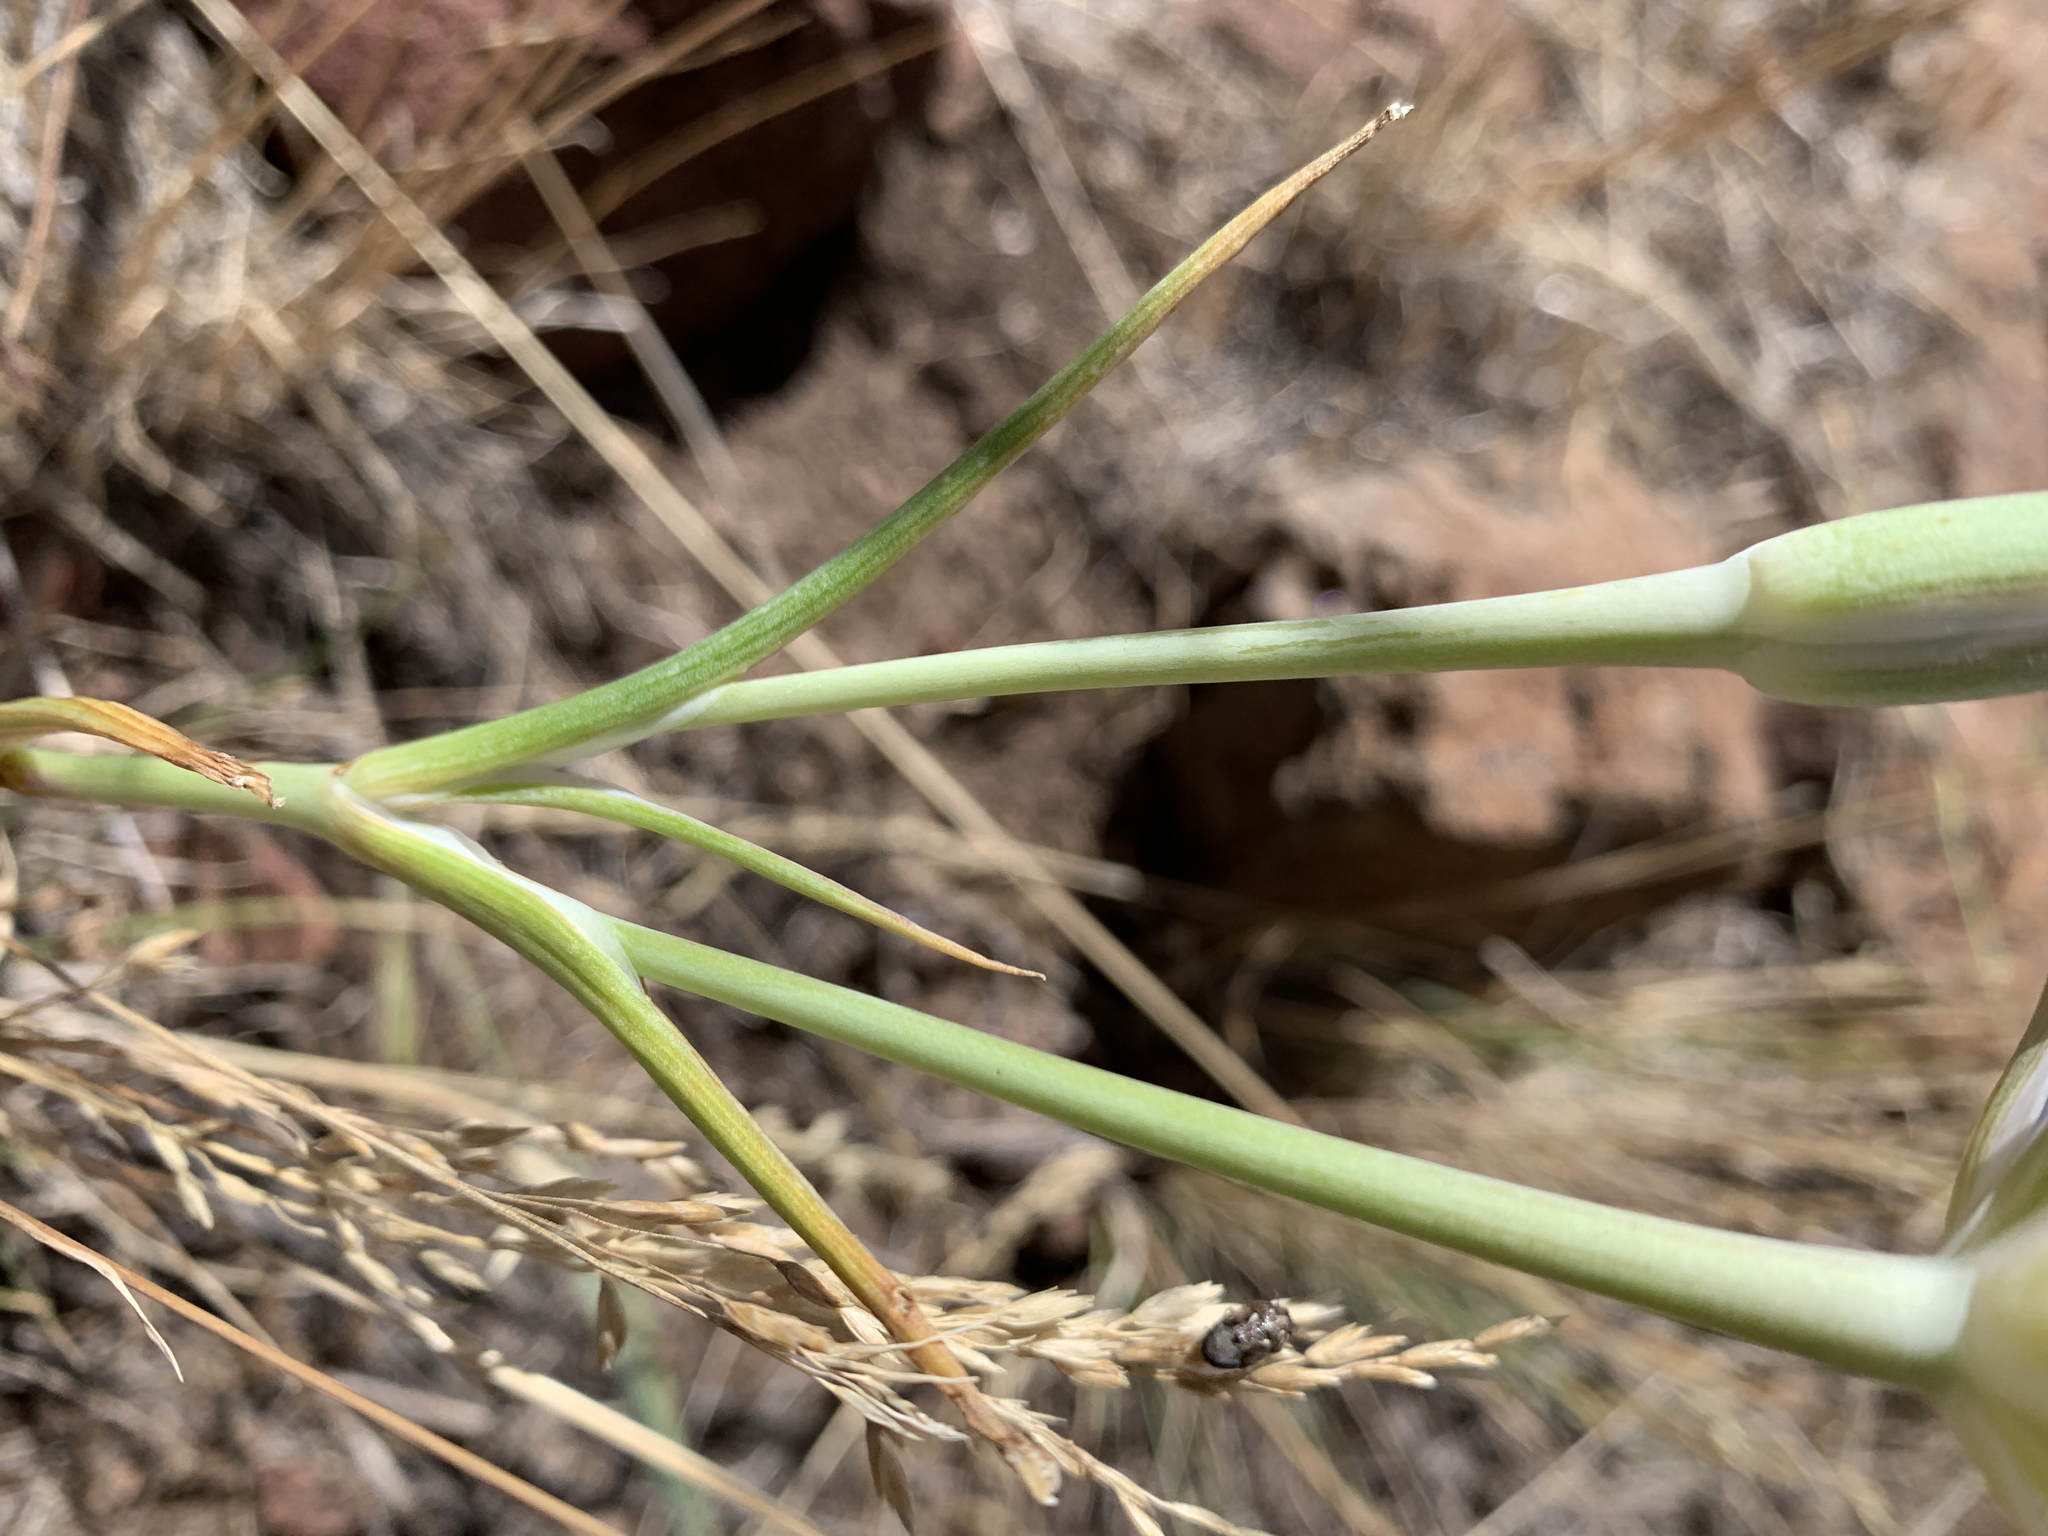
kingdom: Plantae
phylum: Tracheophyta
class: Liliopsida
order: Liliales
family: Liliaceae
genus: Calochortus
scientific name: Calochortus macrocarpus
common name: Green-band mariposa lily
